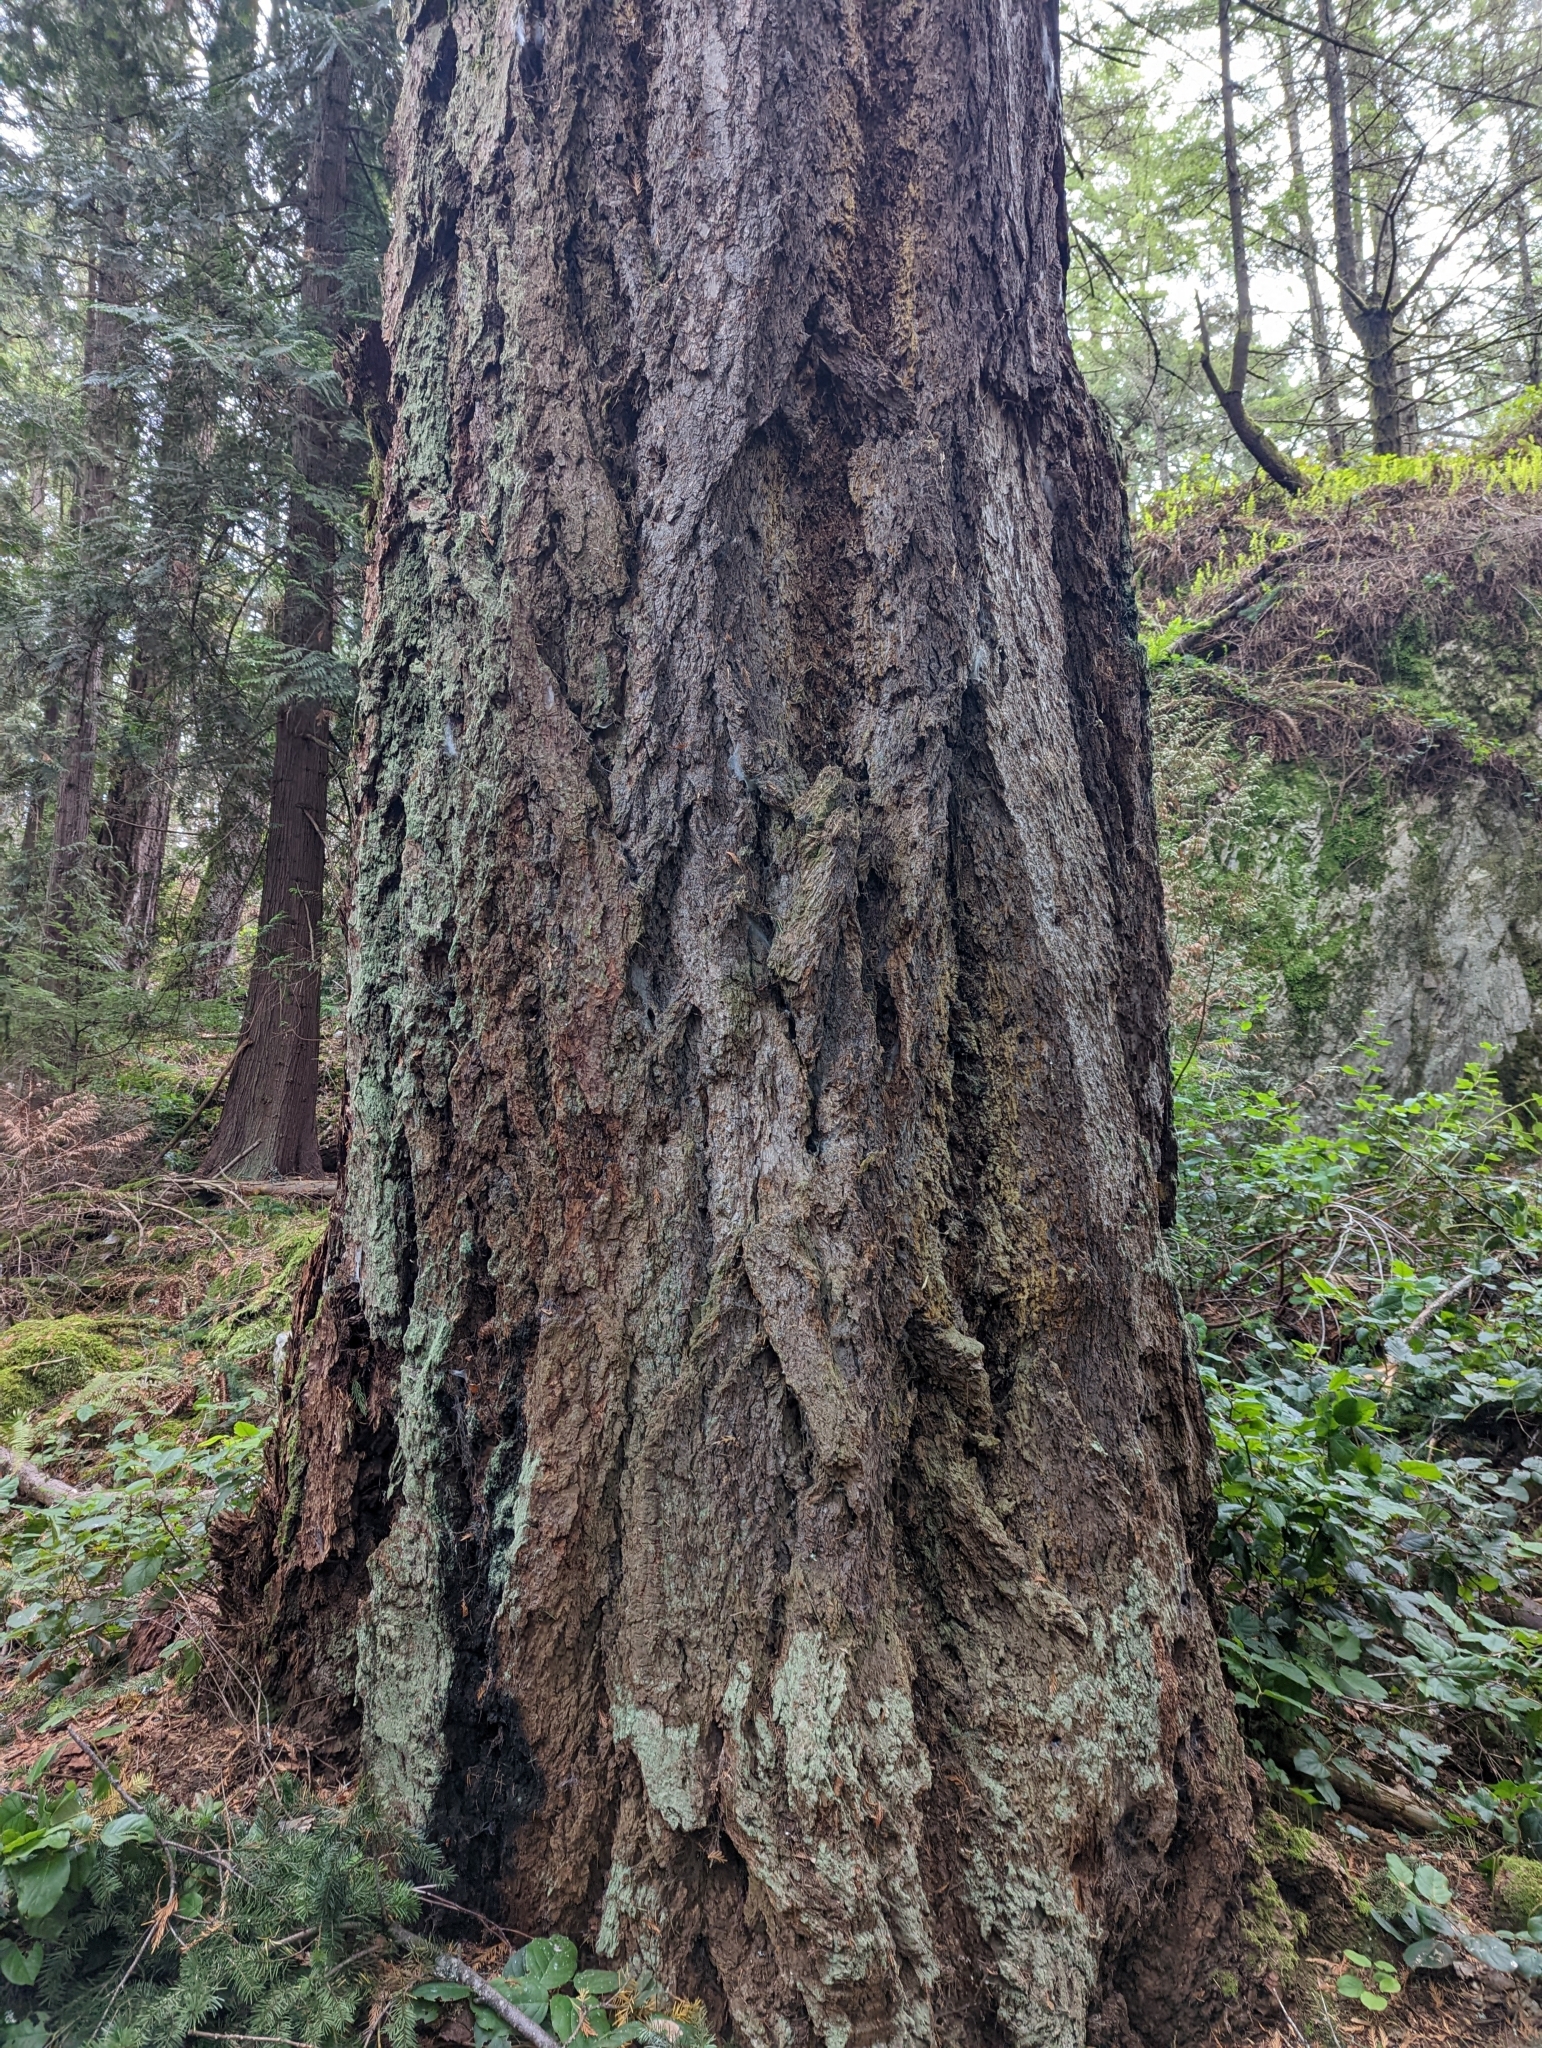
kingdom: Plantae
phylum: Tracheophyta
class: Pinopsida
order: Pinales
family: Pinaceae
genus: Pseudotsuga
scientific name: Pseudotsuga menziesii
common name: Douglas fir
